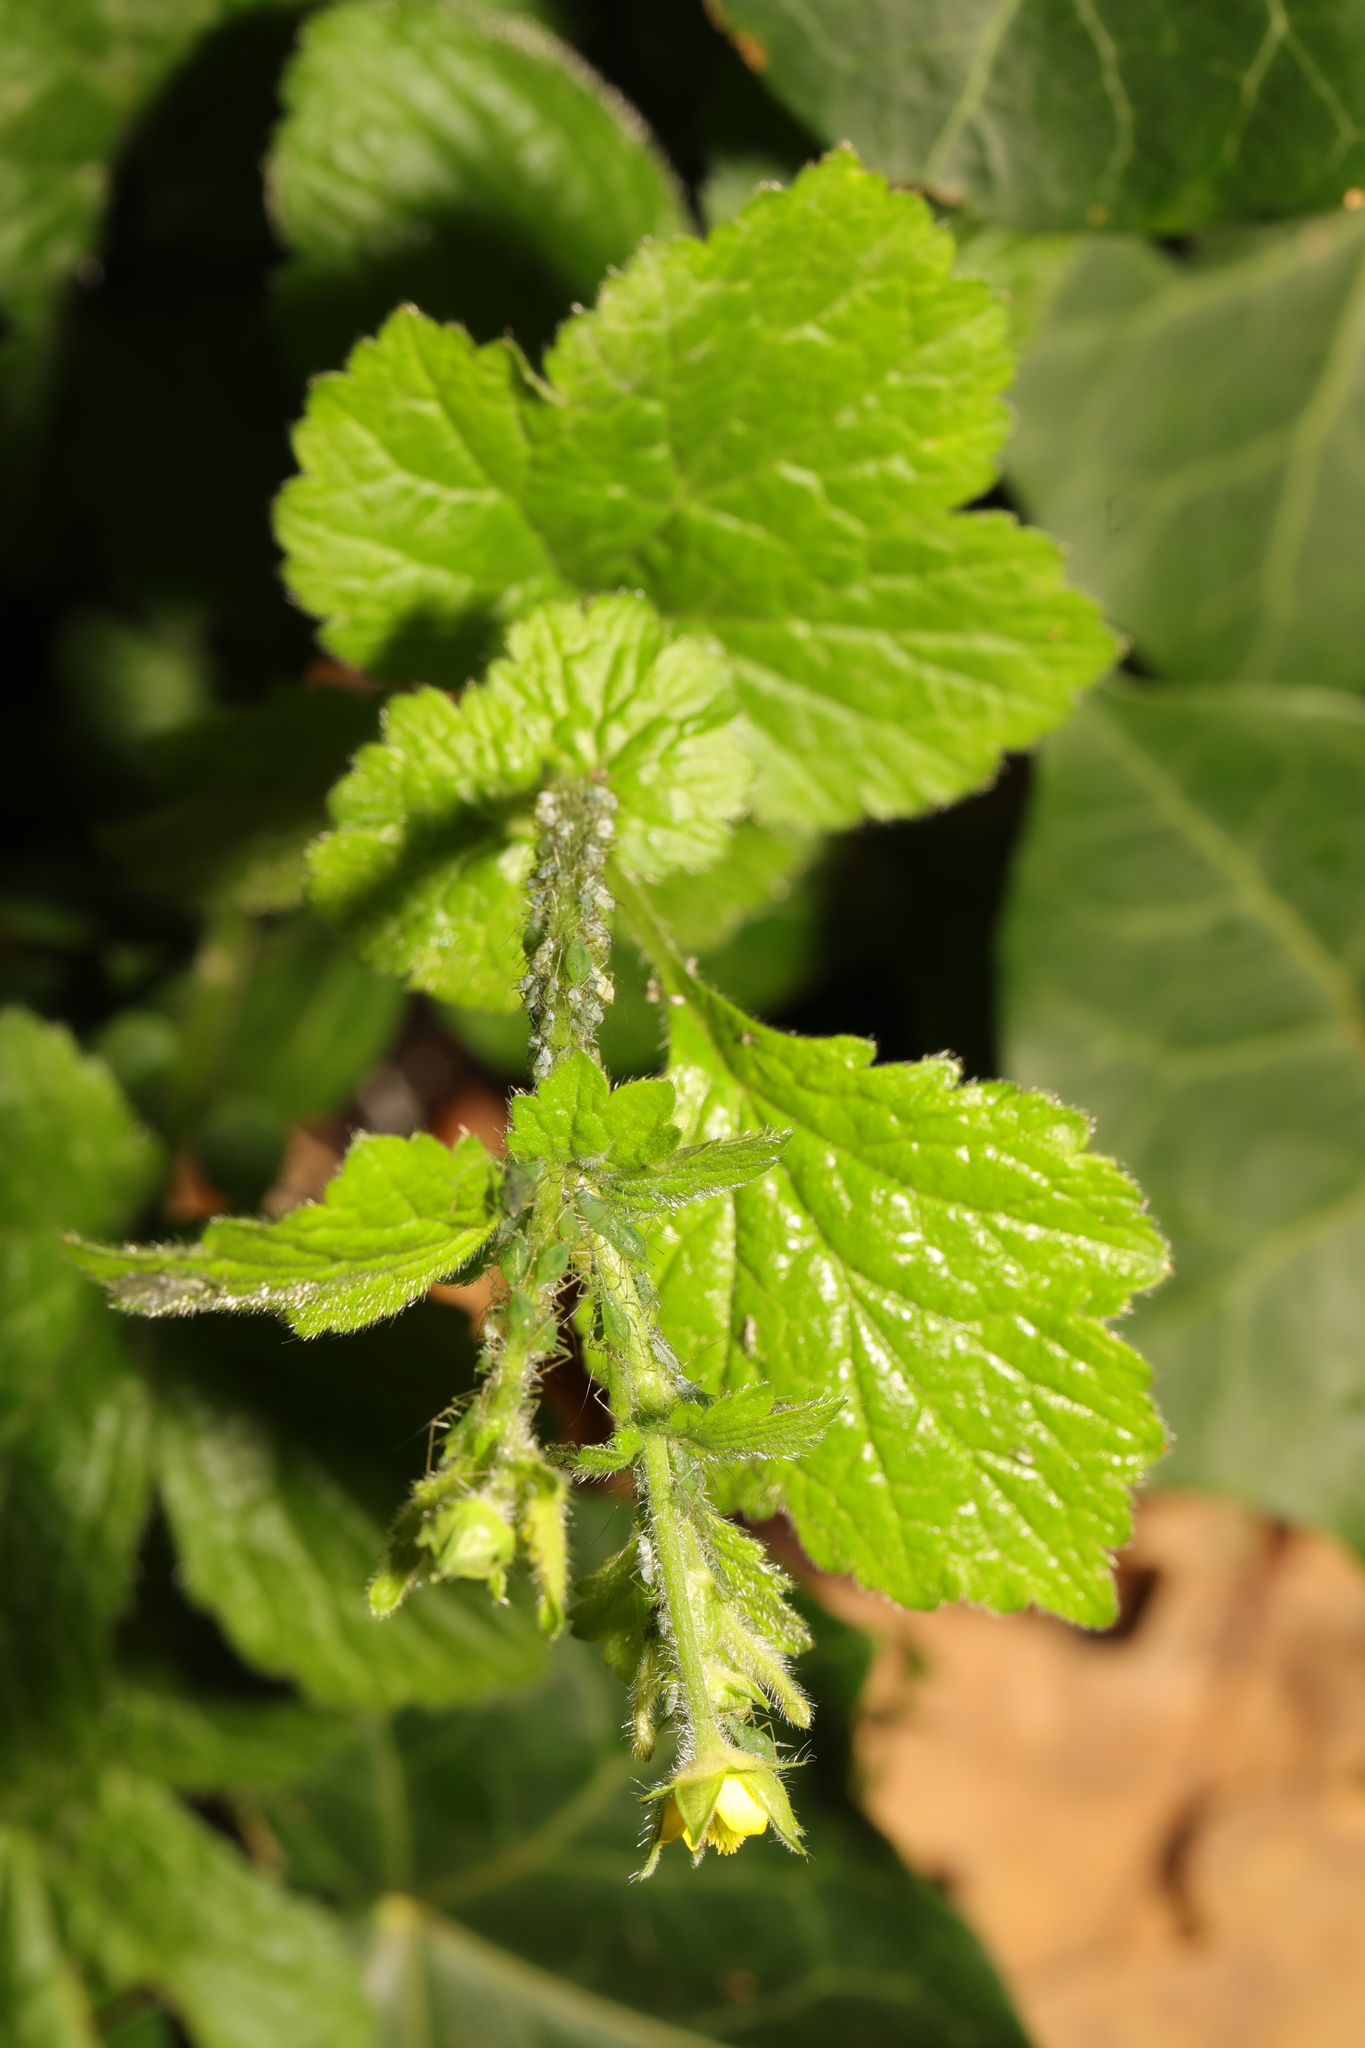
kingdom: Plantae
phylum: Tracheophyta
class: Magnoliopsida
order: Rosales
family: Rosaceae
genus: Geum
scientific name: Geum urbanum
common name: Wood avens
